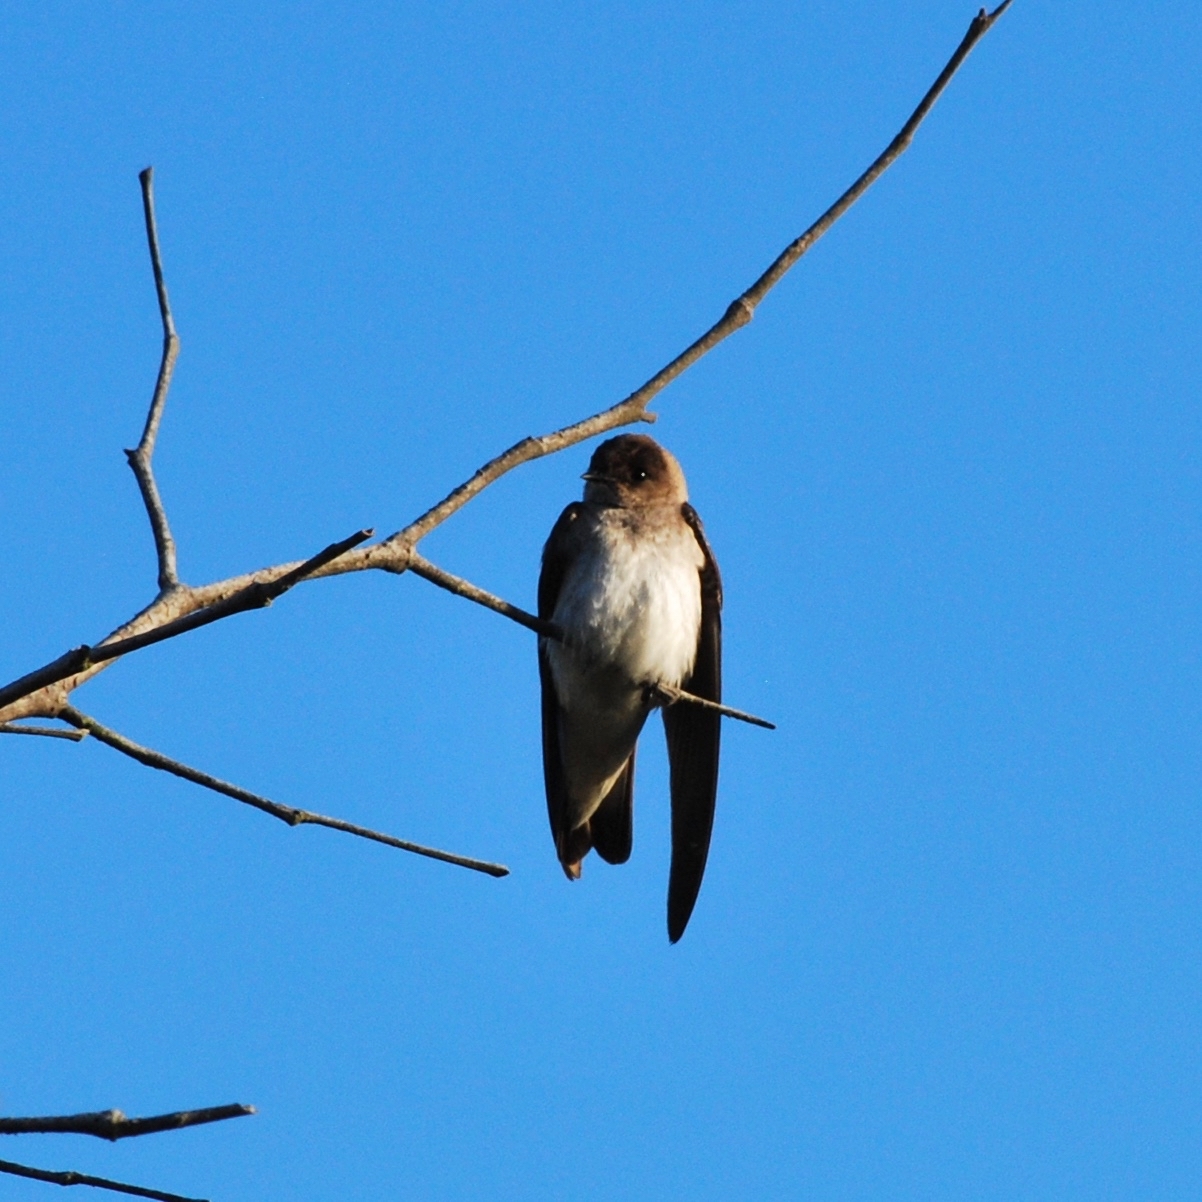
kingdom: Animalia
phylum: Chordata
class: Aves
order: Passeriformes
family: Hirundinidae
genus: Stelgidopteryx
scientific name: Stelgidopteryx serripennis
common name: Northern rough-winged swallow
